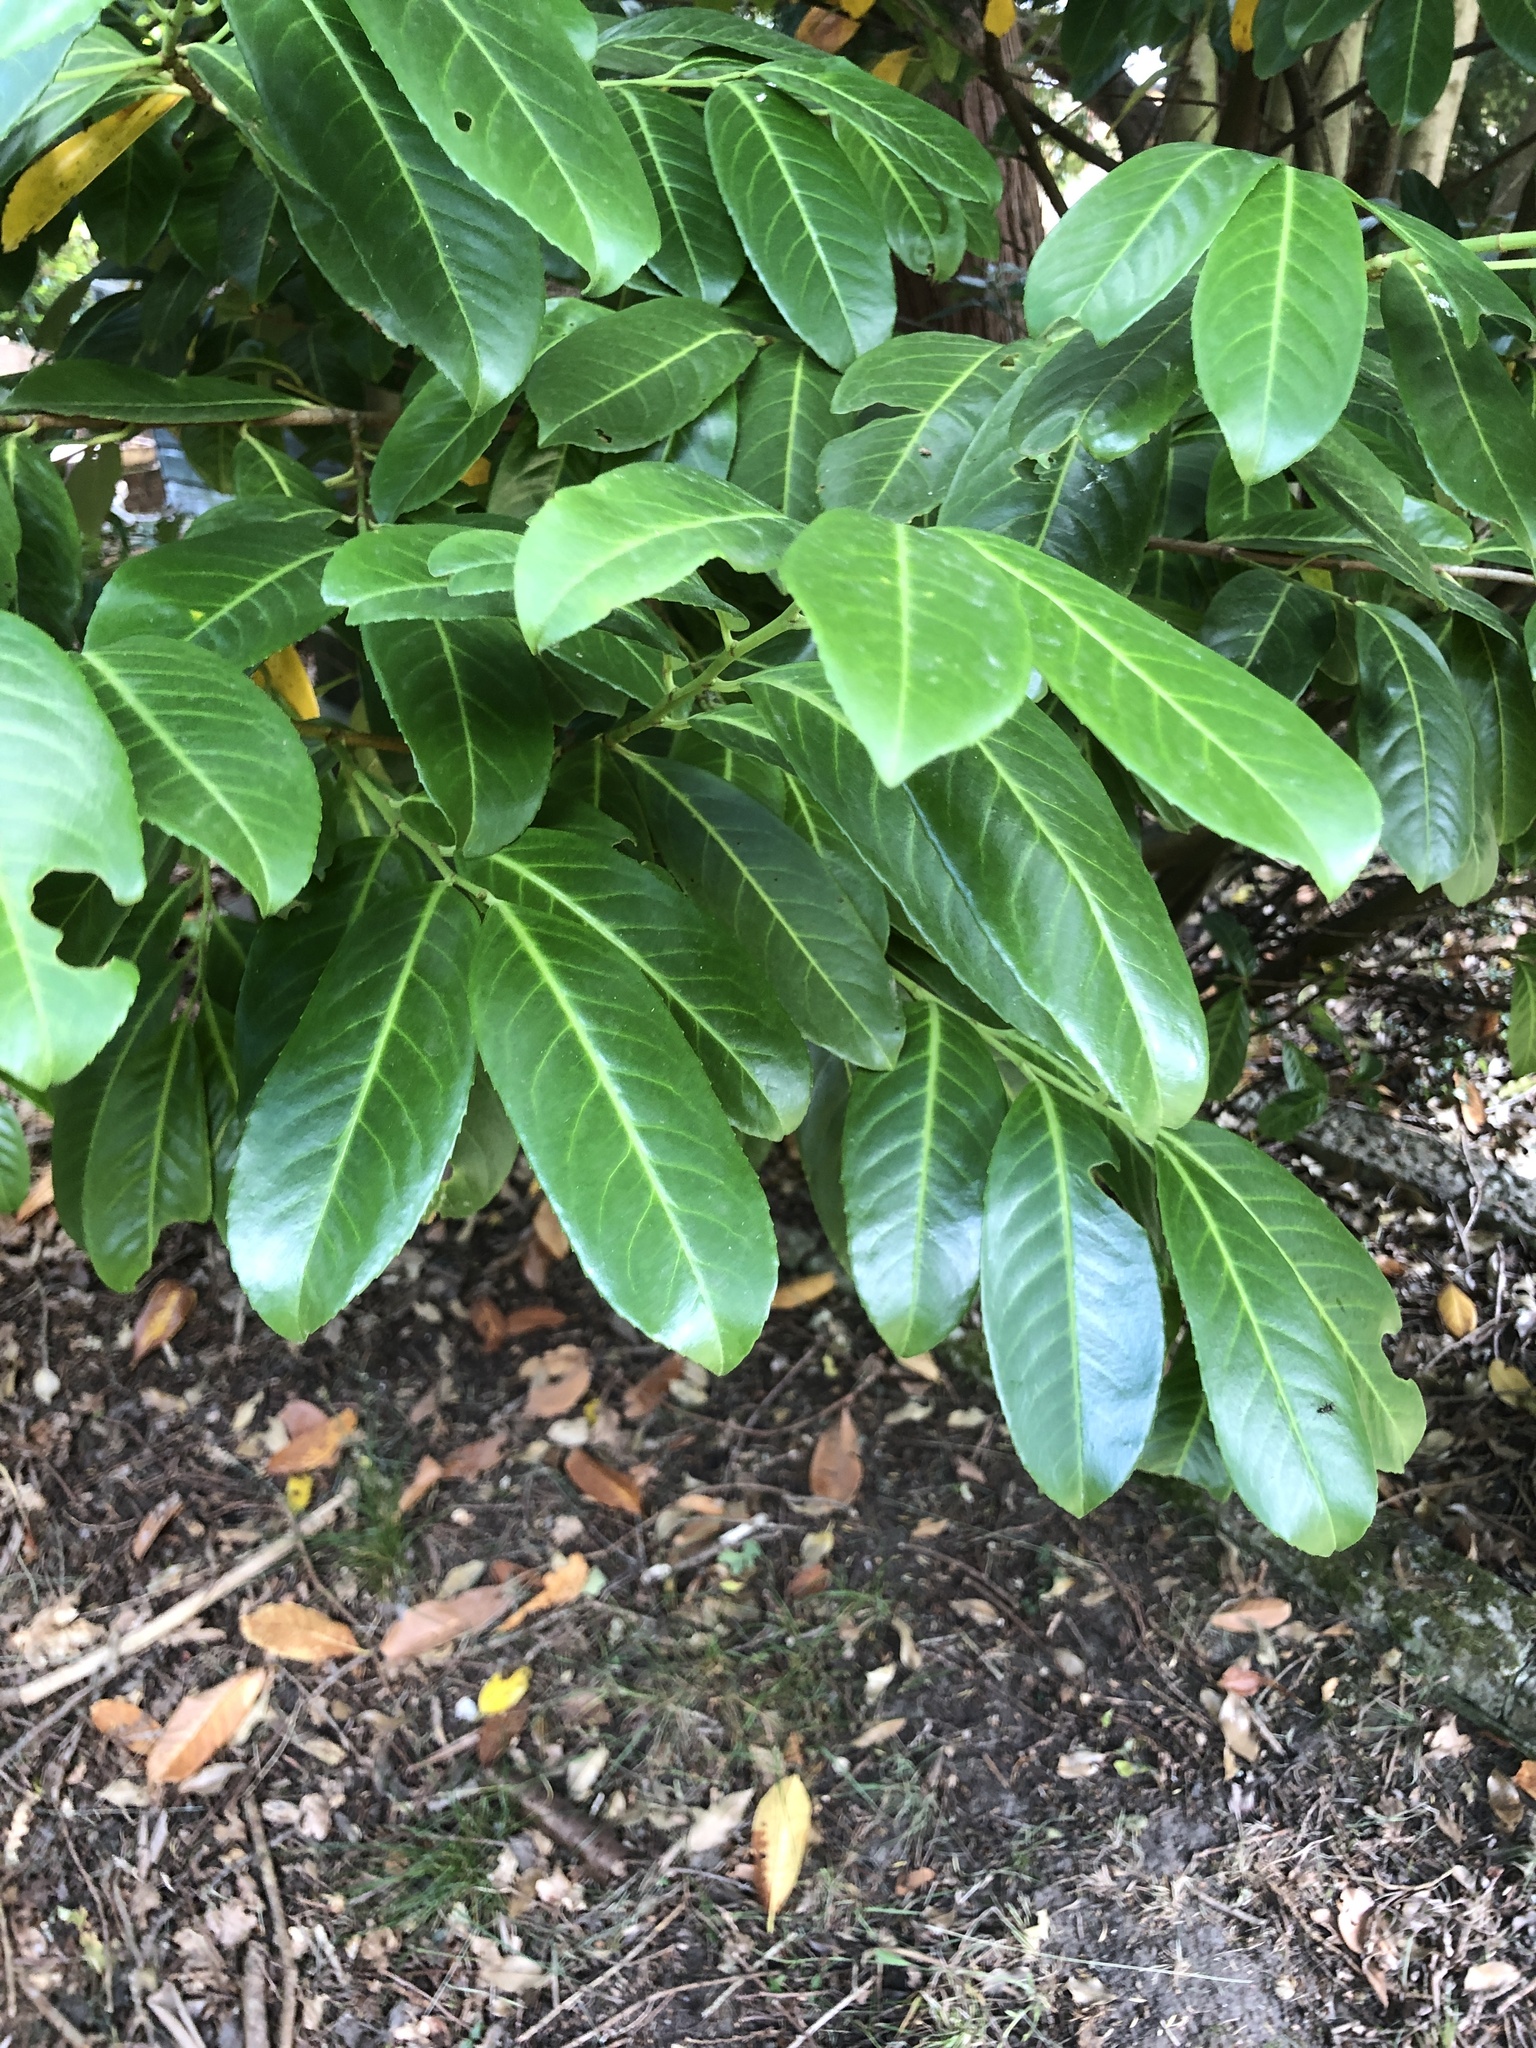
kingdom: Plantae
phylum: Tracheophyta
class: Magnoliopsida
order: Rosales
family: Rosaceae
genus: Prunus
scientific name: Prunus laurocerasus
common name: Cherry laurel
